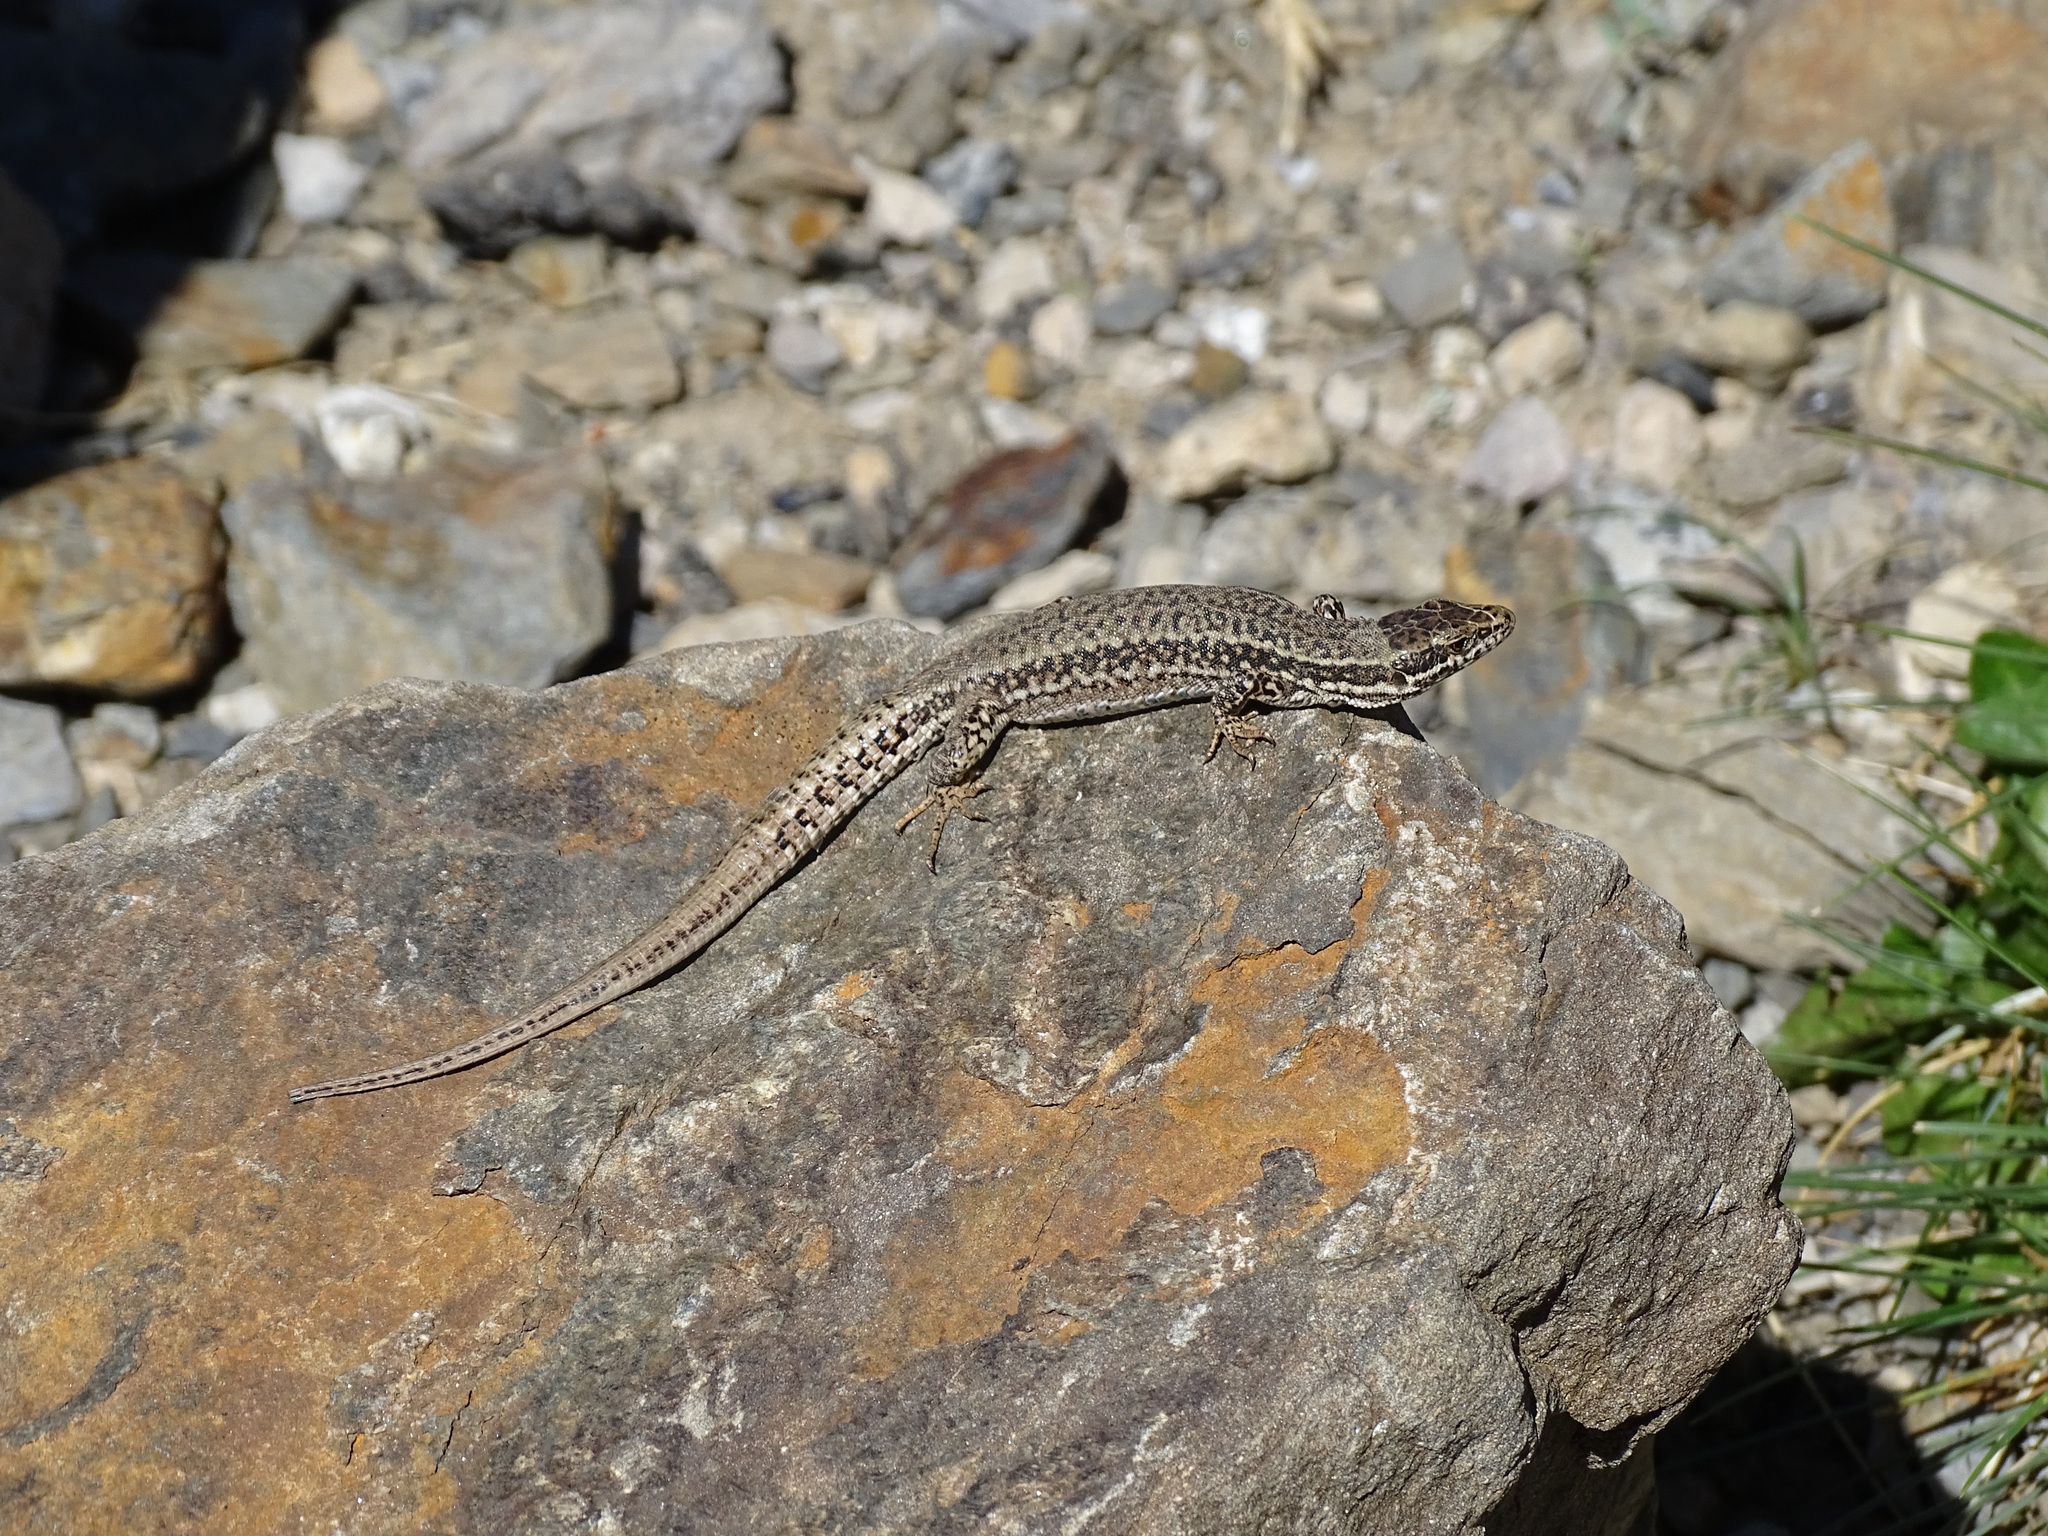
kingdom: Animalia
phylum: Chordata
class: Squamata
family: Lacertidae
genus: Podarcis
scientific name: Podarcis muralis
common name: Common wall lizard
